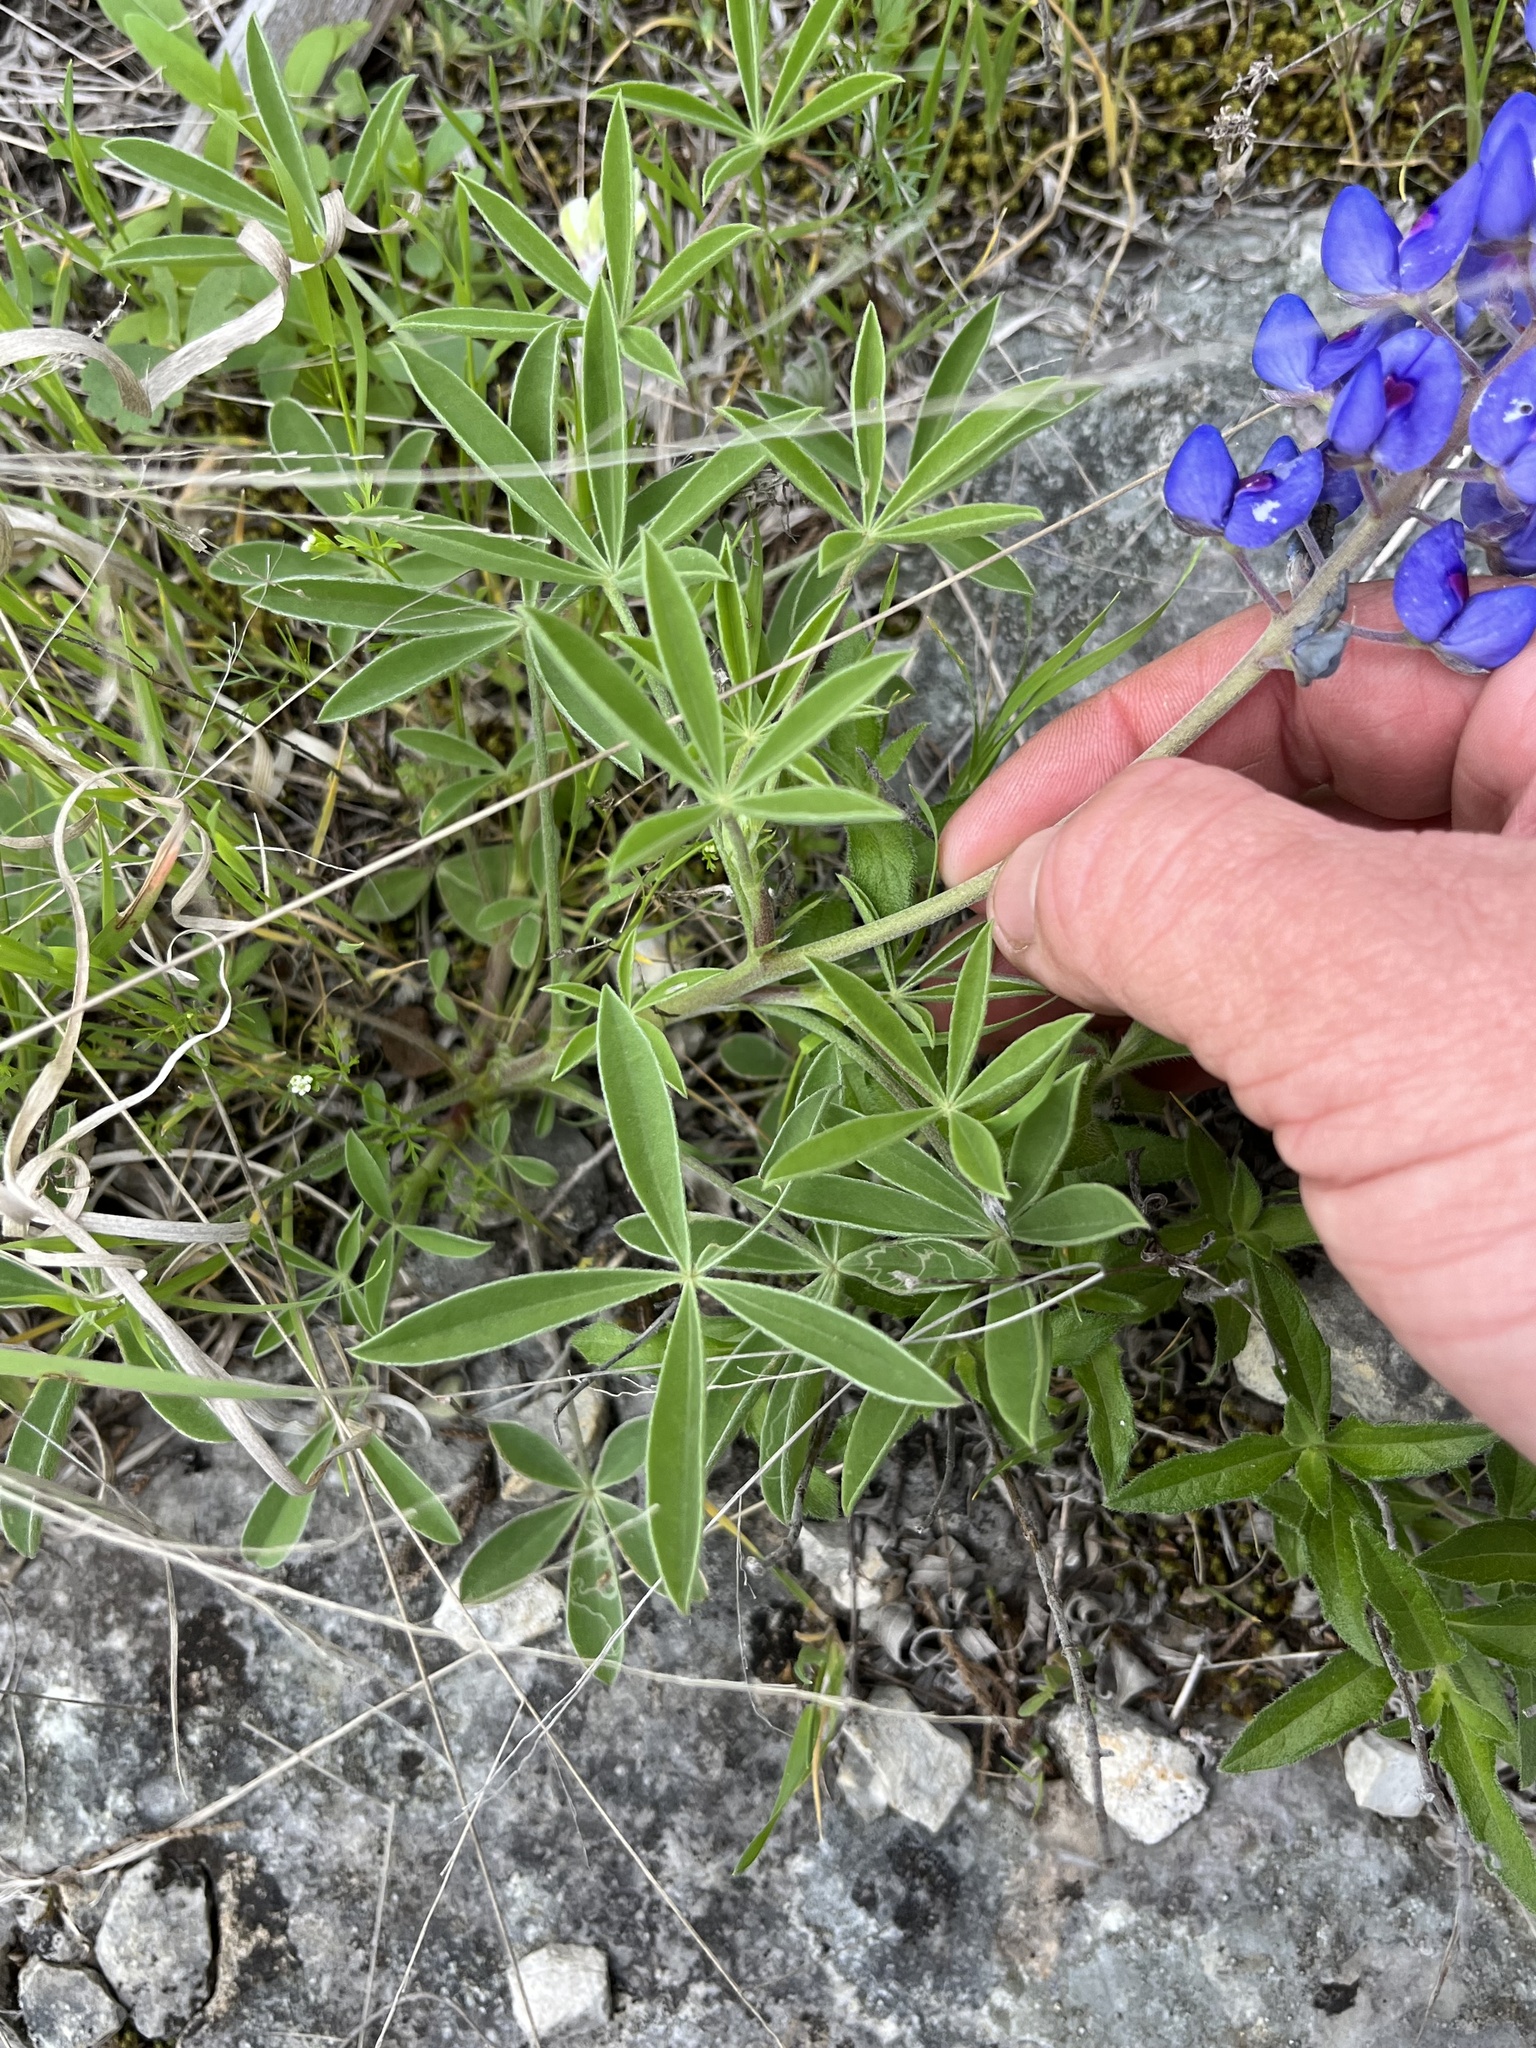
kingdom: Plantae
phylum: Tracheophyta
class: Magnoliopsida
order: Fabales
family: Fabaceae
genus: Lupinus
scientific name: Lupinus texensis
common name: Texas bluebonnet
